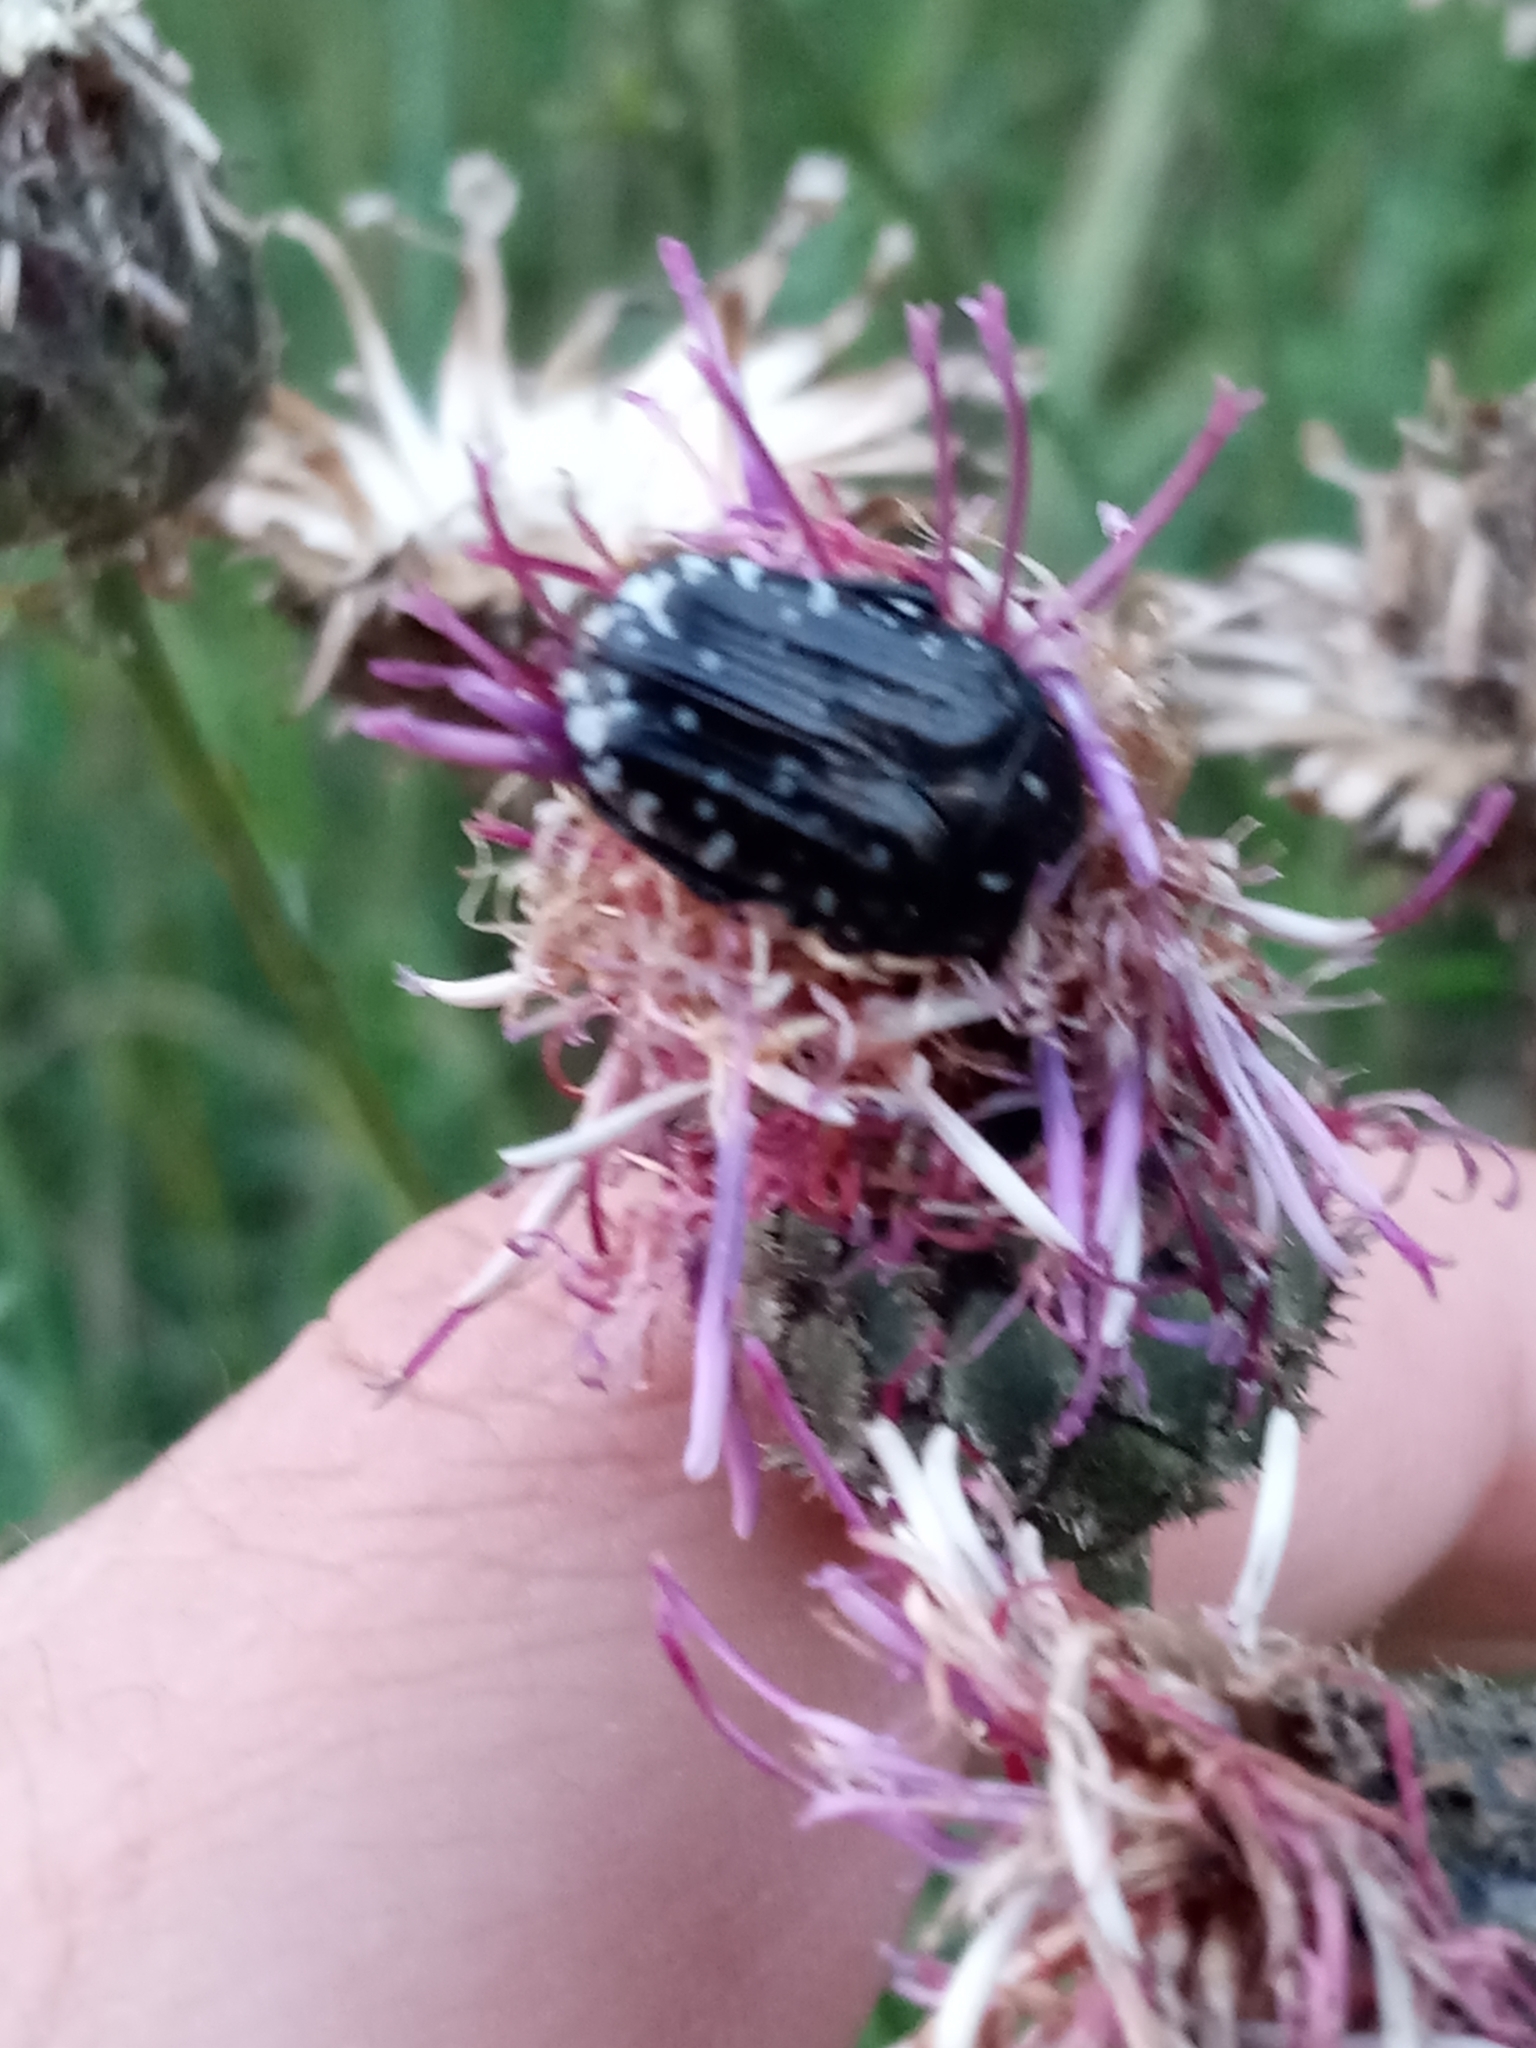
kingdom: Animalia
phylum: Arthropoda
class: Insecta
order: Coleoptera
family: Scarabaeidae
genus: Oxythyrea
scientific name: Oxythyrea funesta
